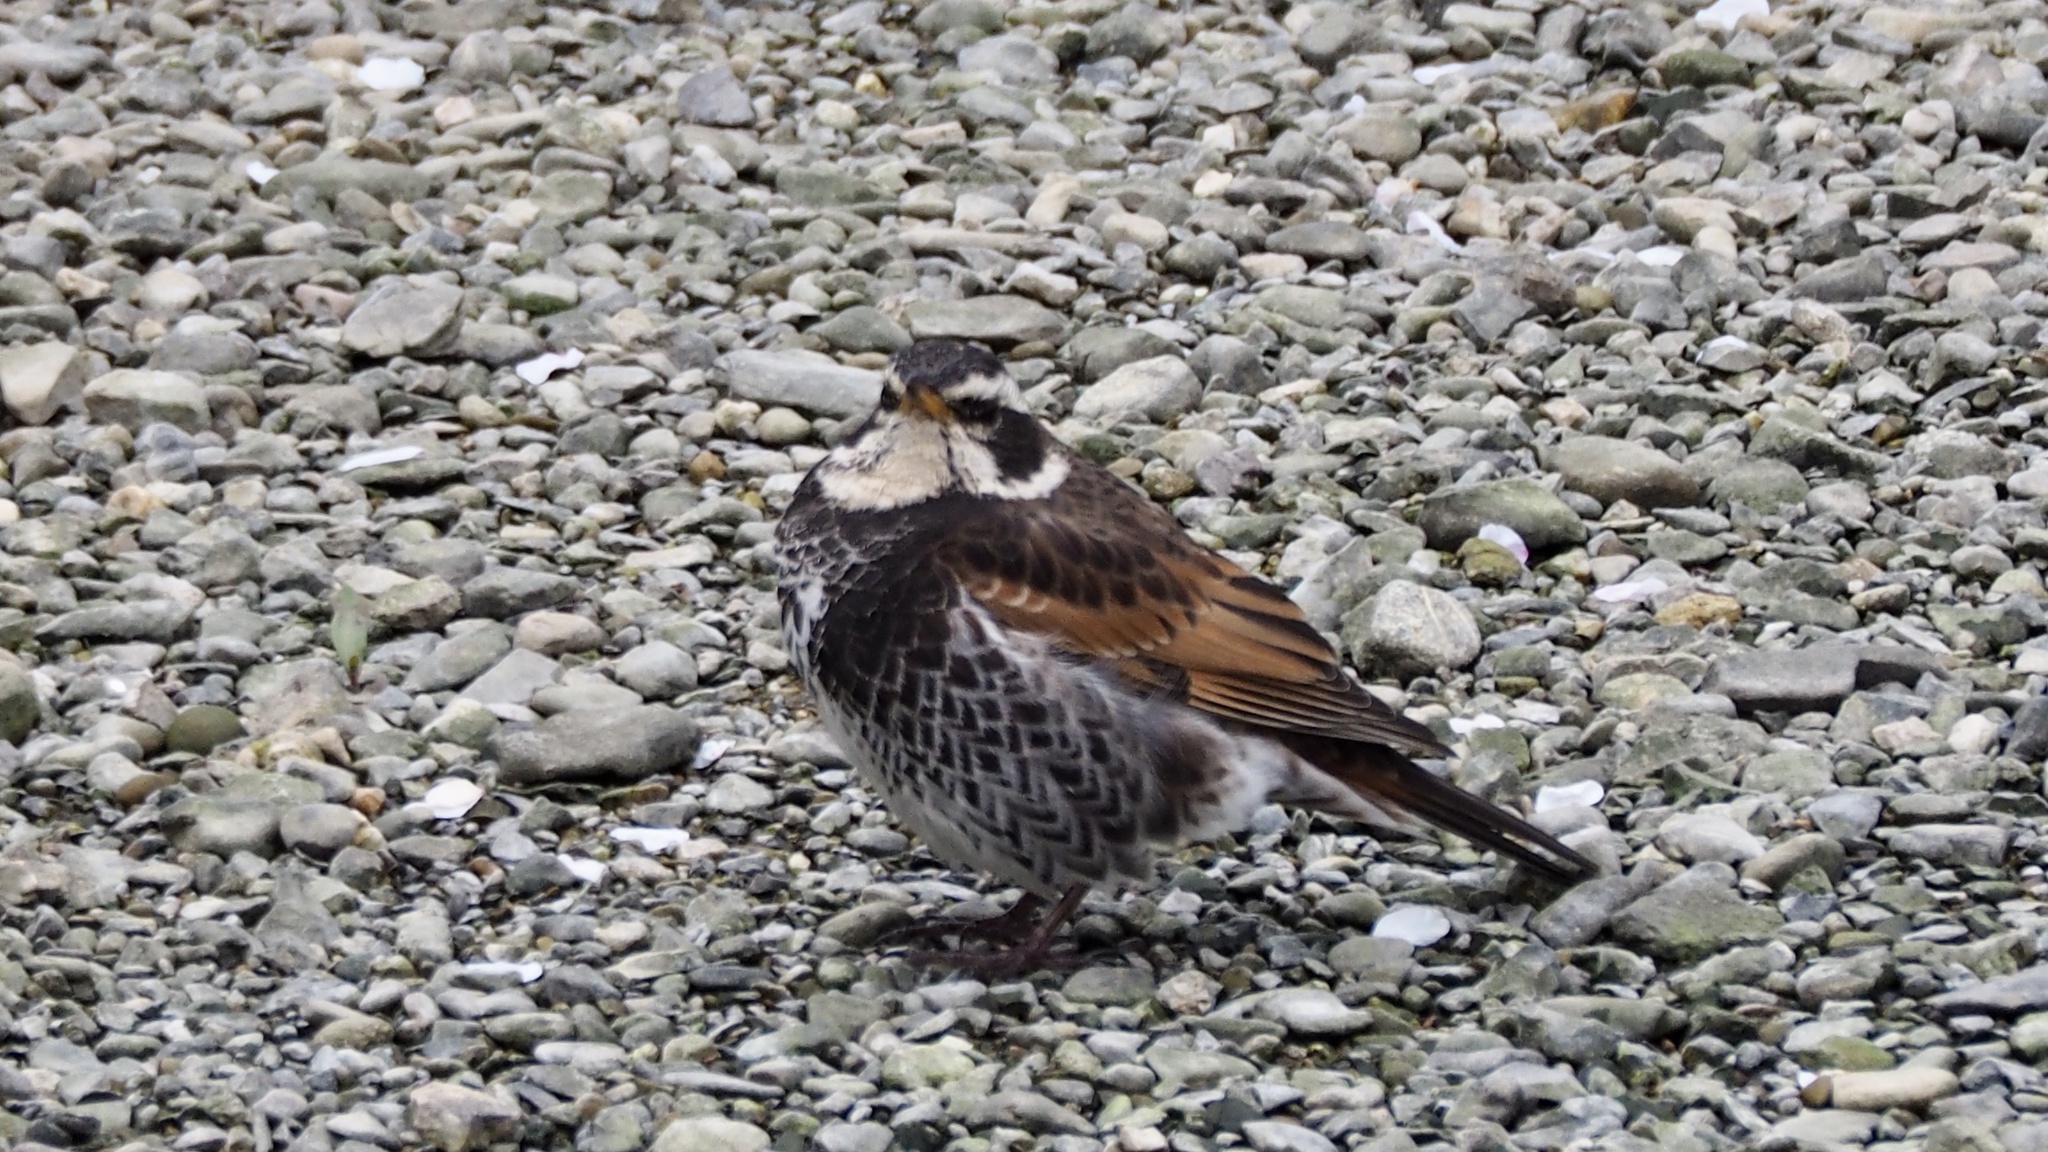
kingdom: Animalia
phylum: Chordata
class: Aves
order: Passeriformes
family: Turdidae
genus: Turdus
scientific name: Turdus eunomus
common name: Dusky thrush
